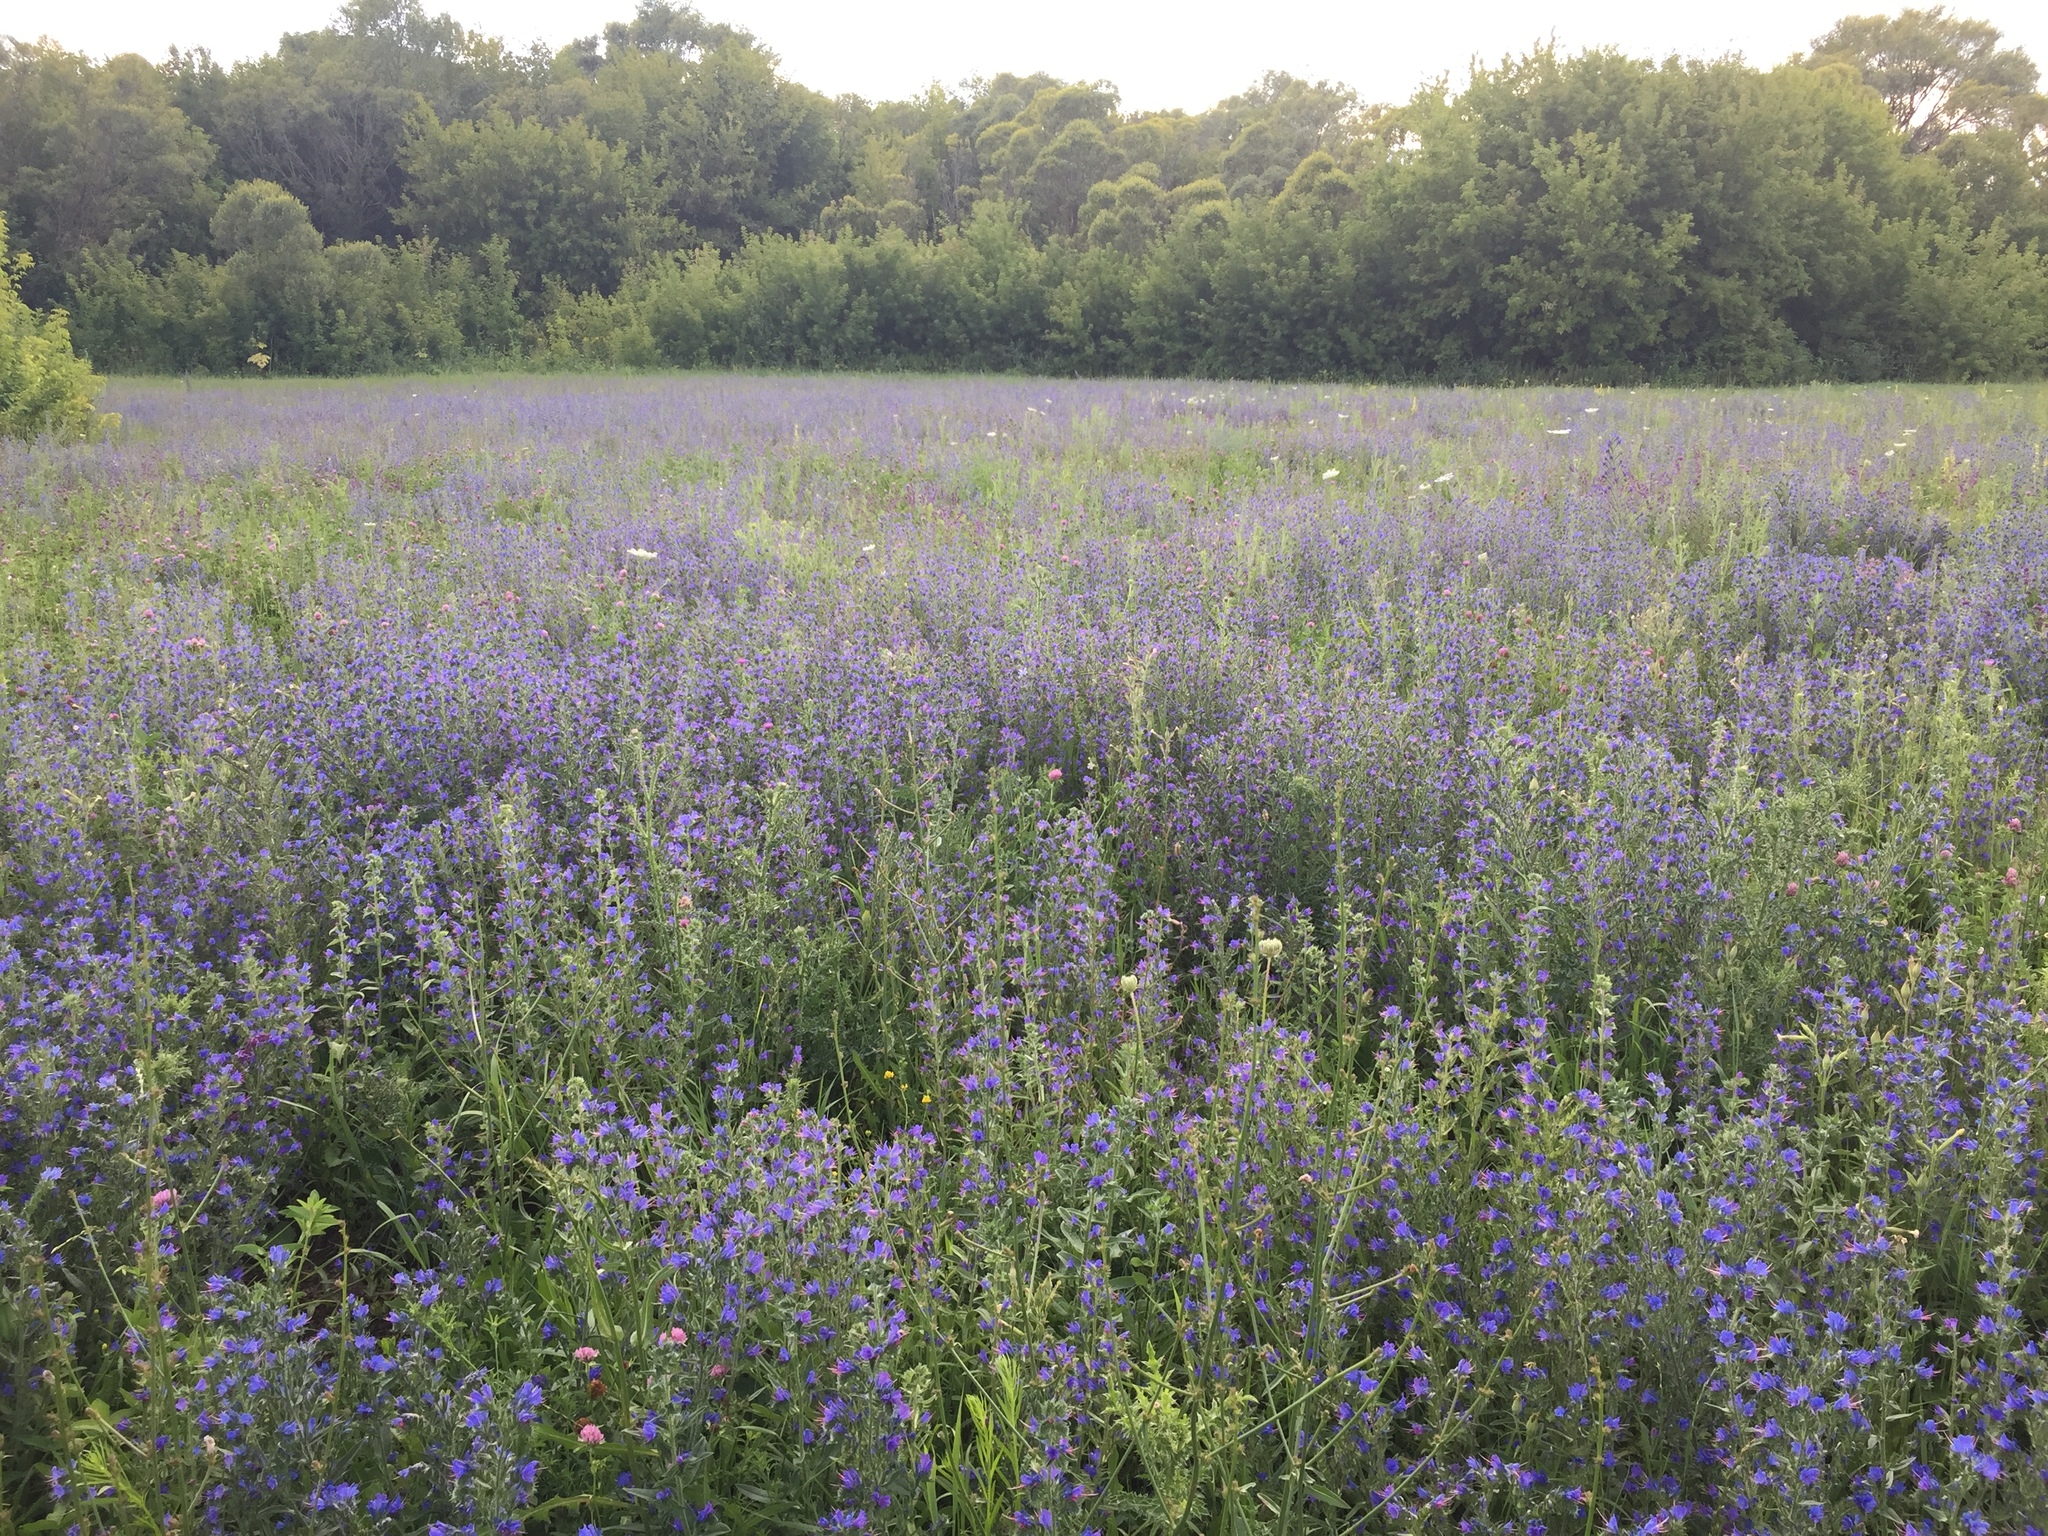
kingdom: Plantae
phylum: Tracheophyta
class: Magnoliopsida
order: Boraginales
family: Boraginaceae
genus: Echium
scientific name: Echium vulgare
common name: Common viper's bugloss
